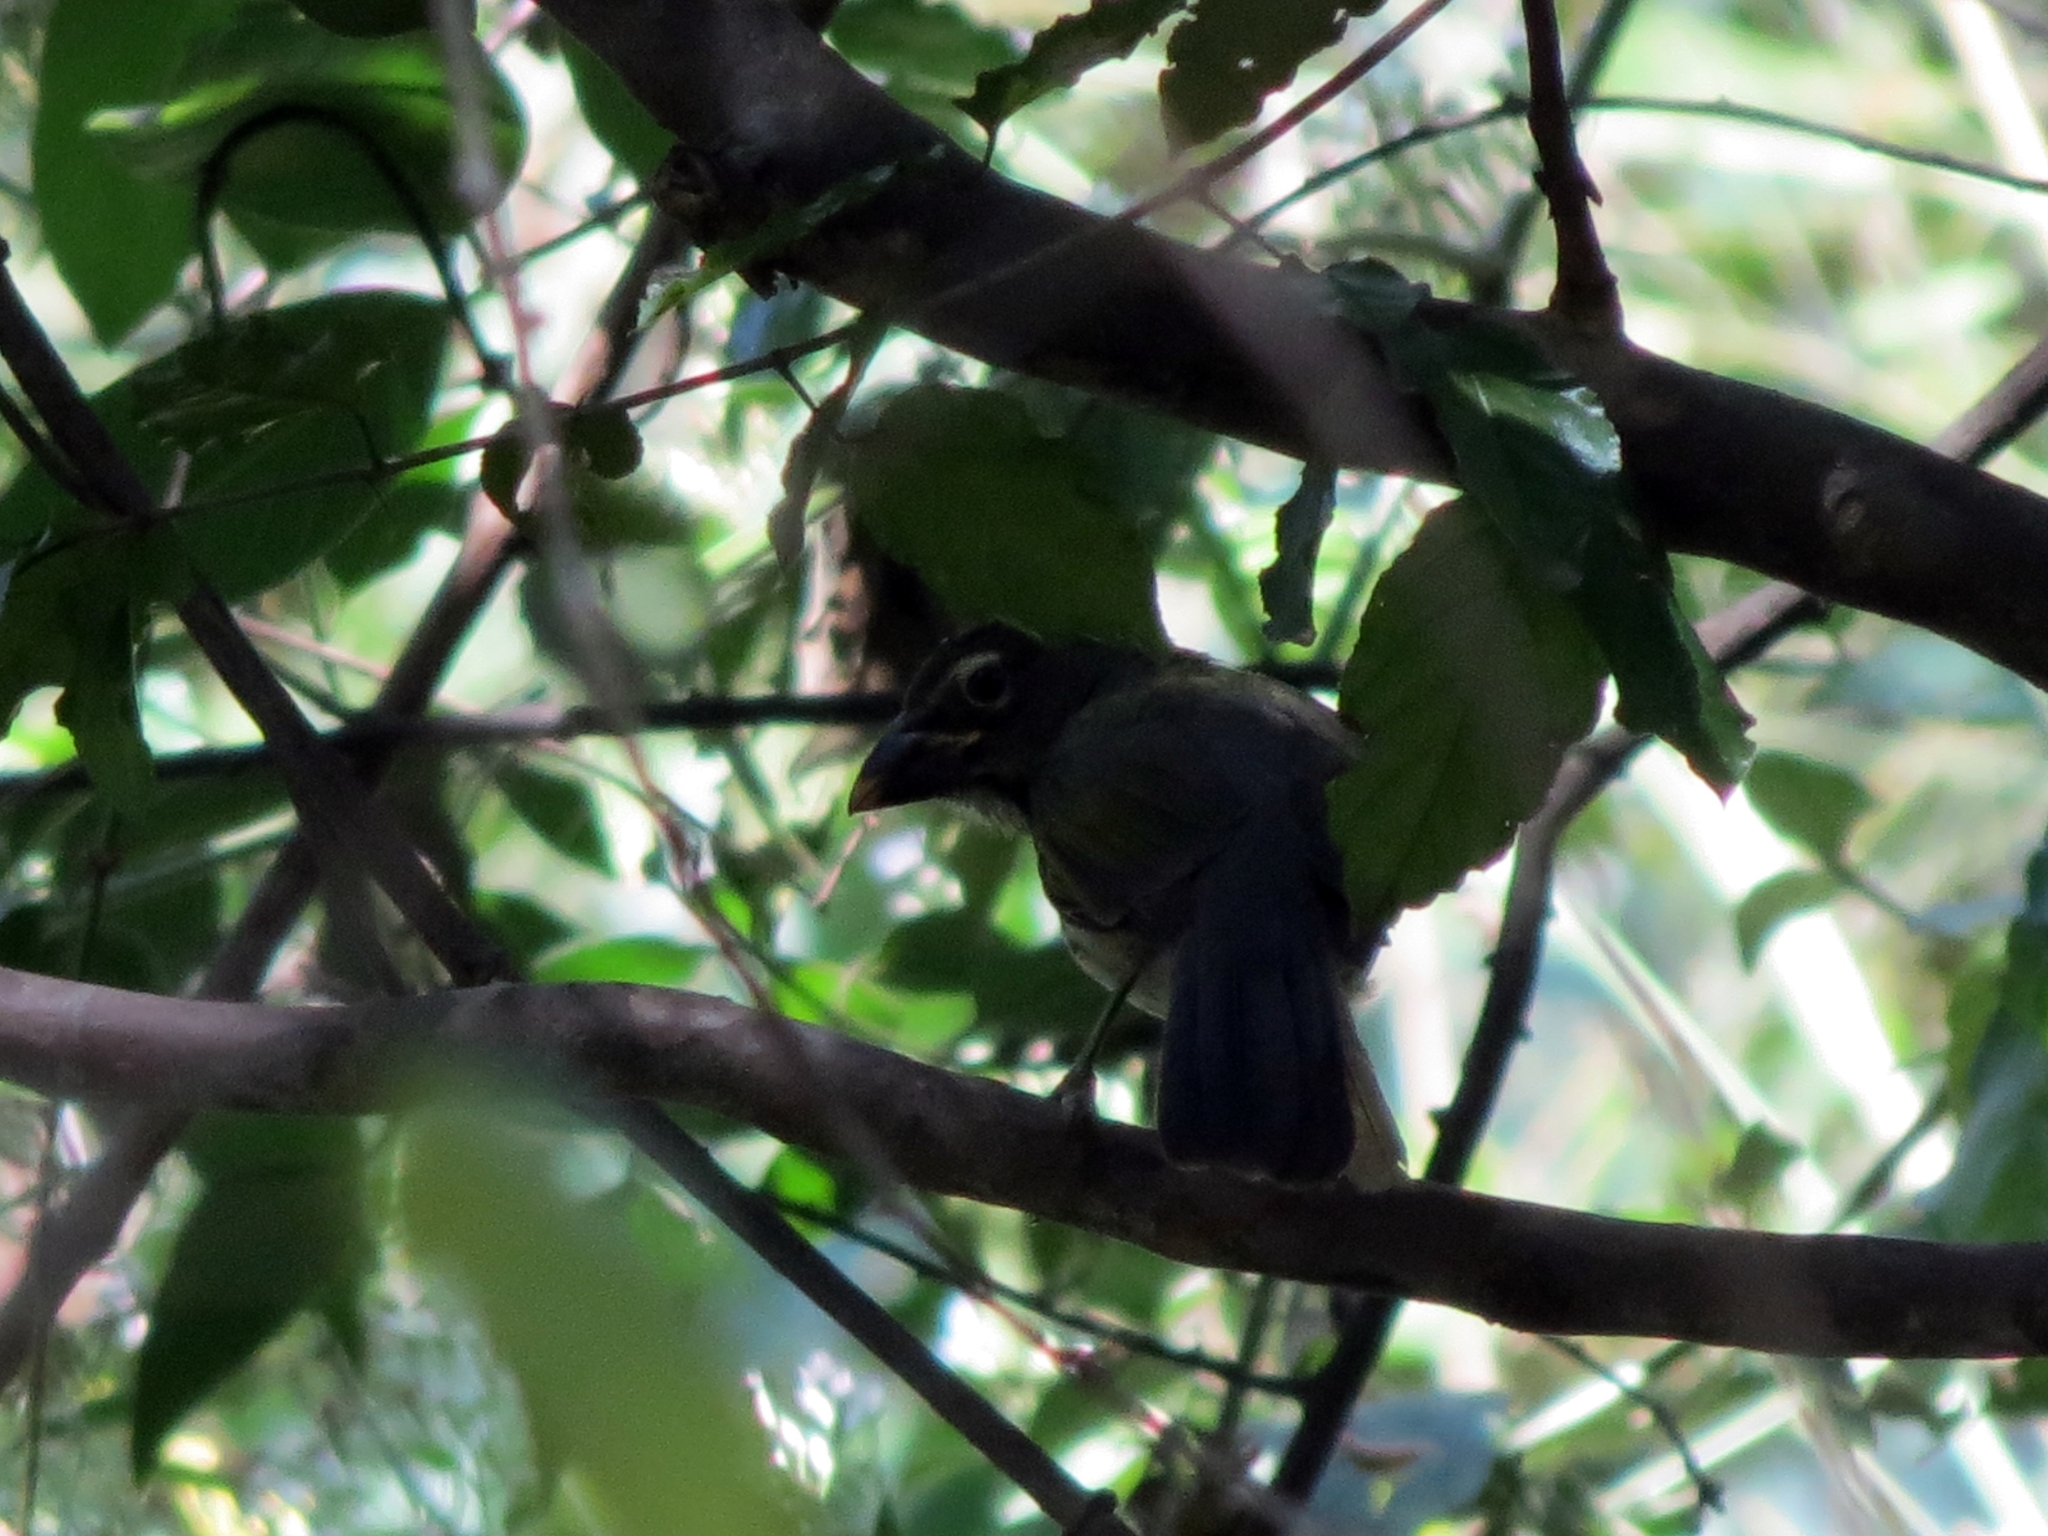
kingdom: Animalia
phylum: Chordata
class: Aves
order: Passeriformes
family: Thraupidae
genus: Saltator
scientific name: Saltator striatipectus
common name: Streaked saltator
